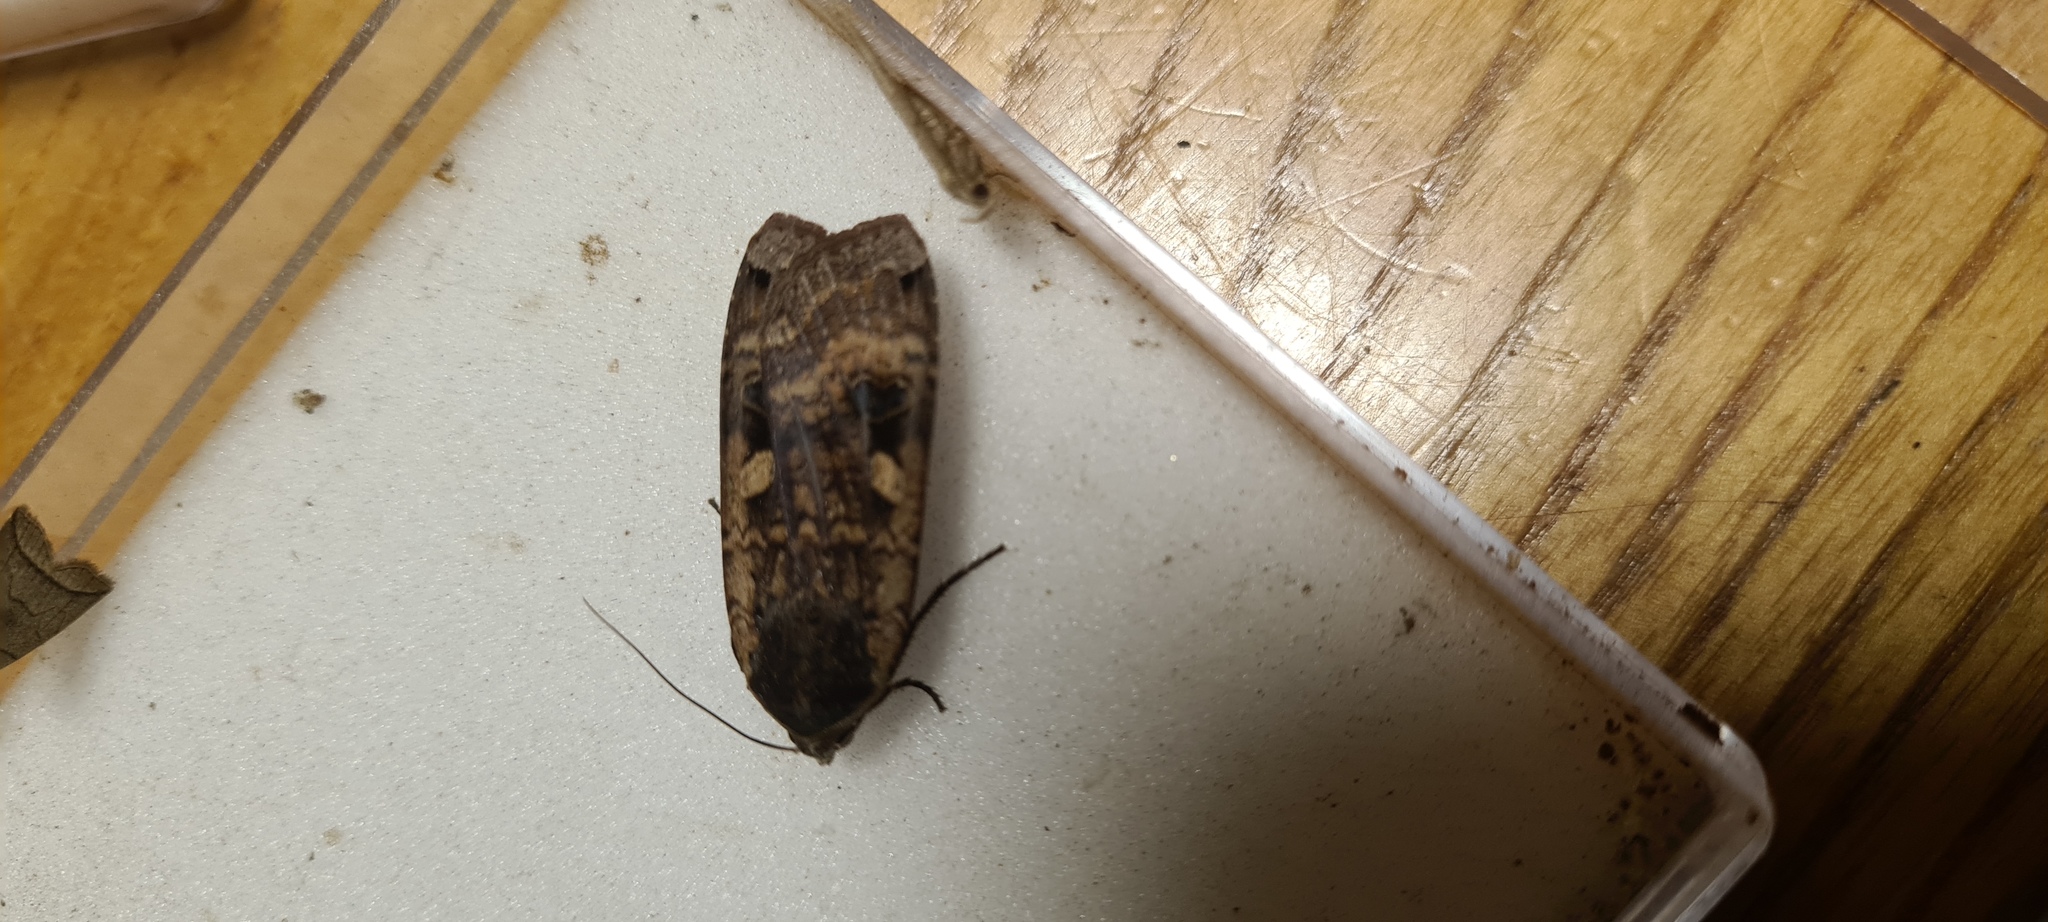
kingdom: Animalia
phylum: Arthropoda
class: Insecta
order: Lepidoptera
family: Noctuidae
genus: Noctua
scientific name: Noctua pronuba
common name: Large yellow underwing
